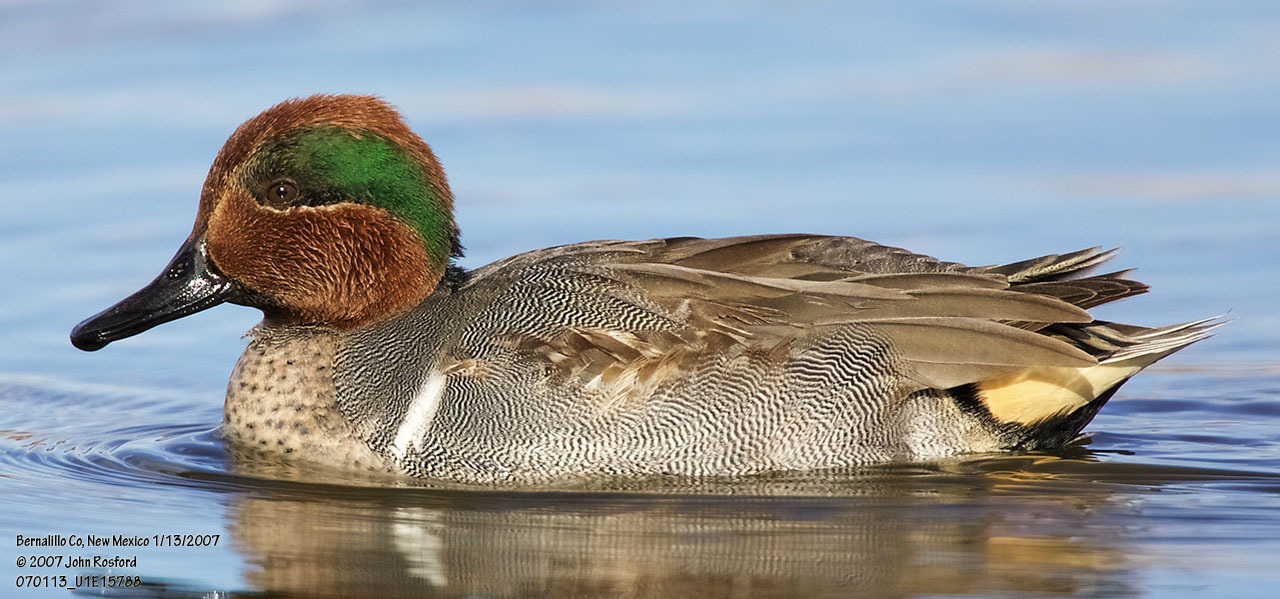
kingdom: Animalia
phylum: Chordata
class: Aves
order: Anseriformes
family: Anatidae
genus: Anas
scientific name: Anas crecca
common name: Eurasian teal
